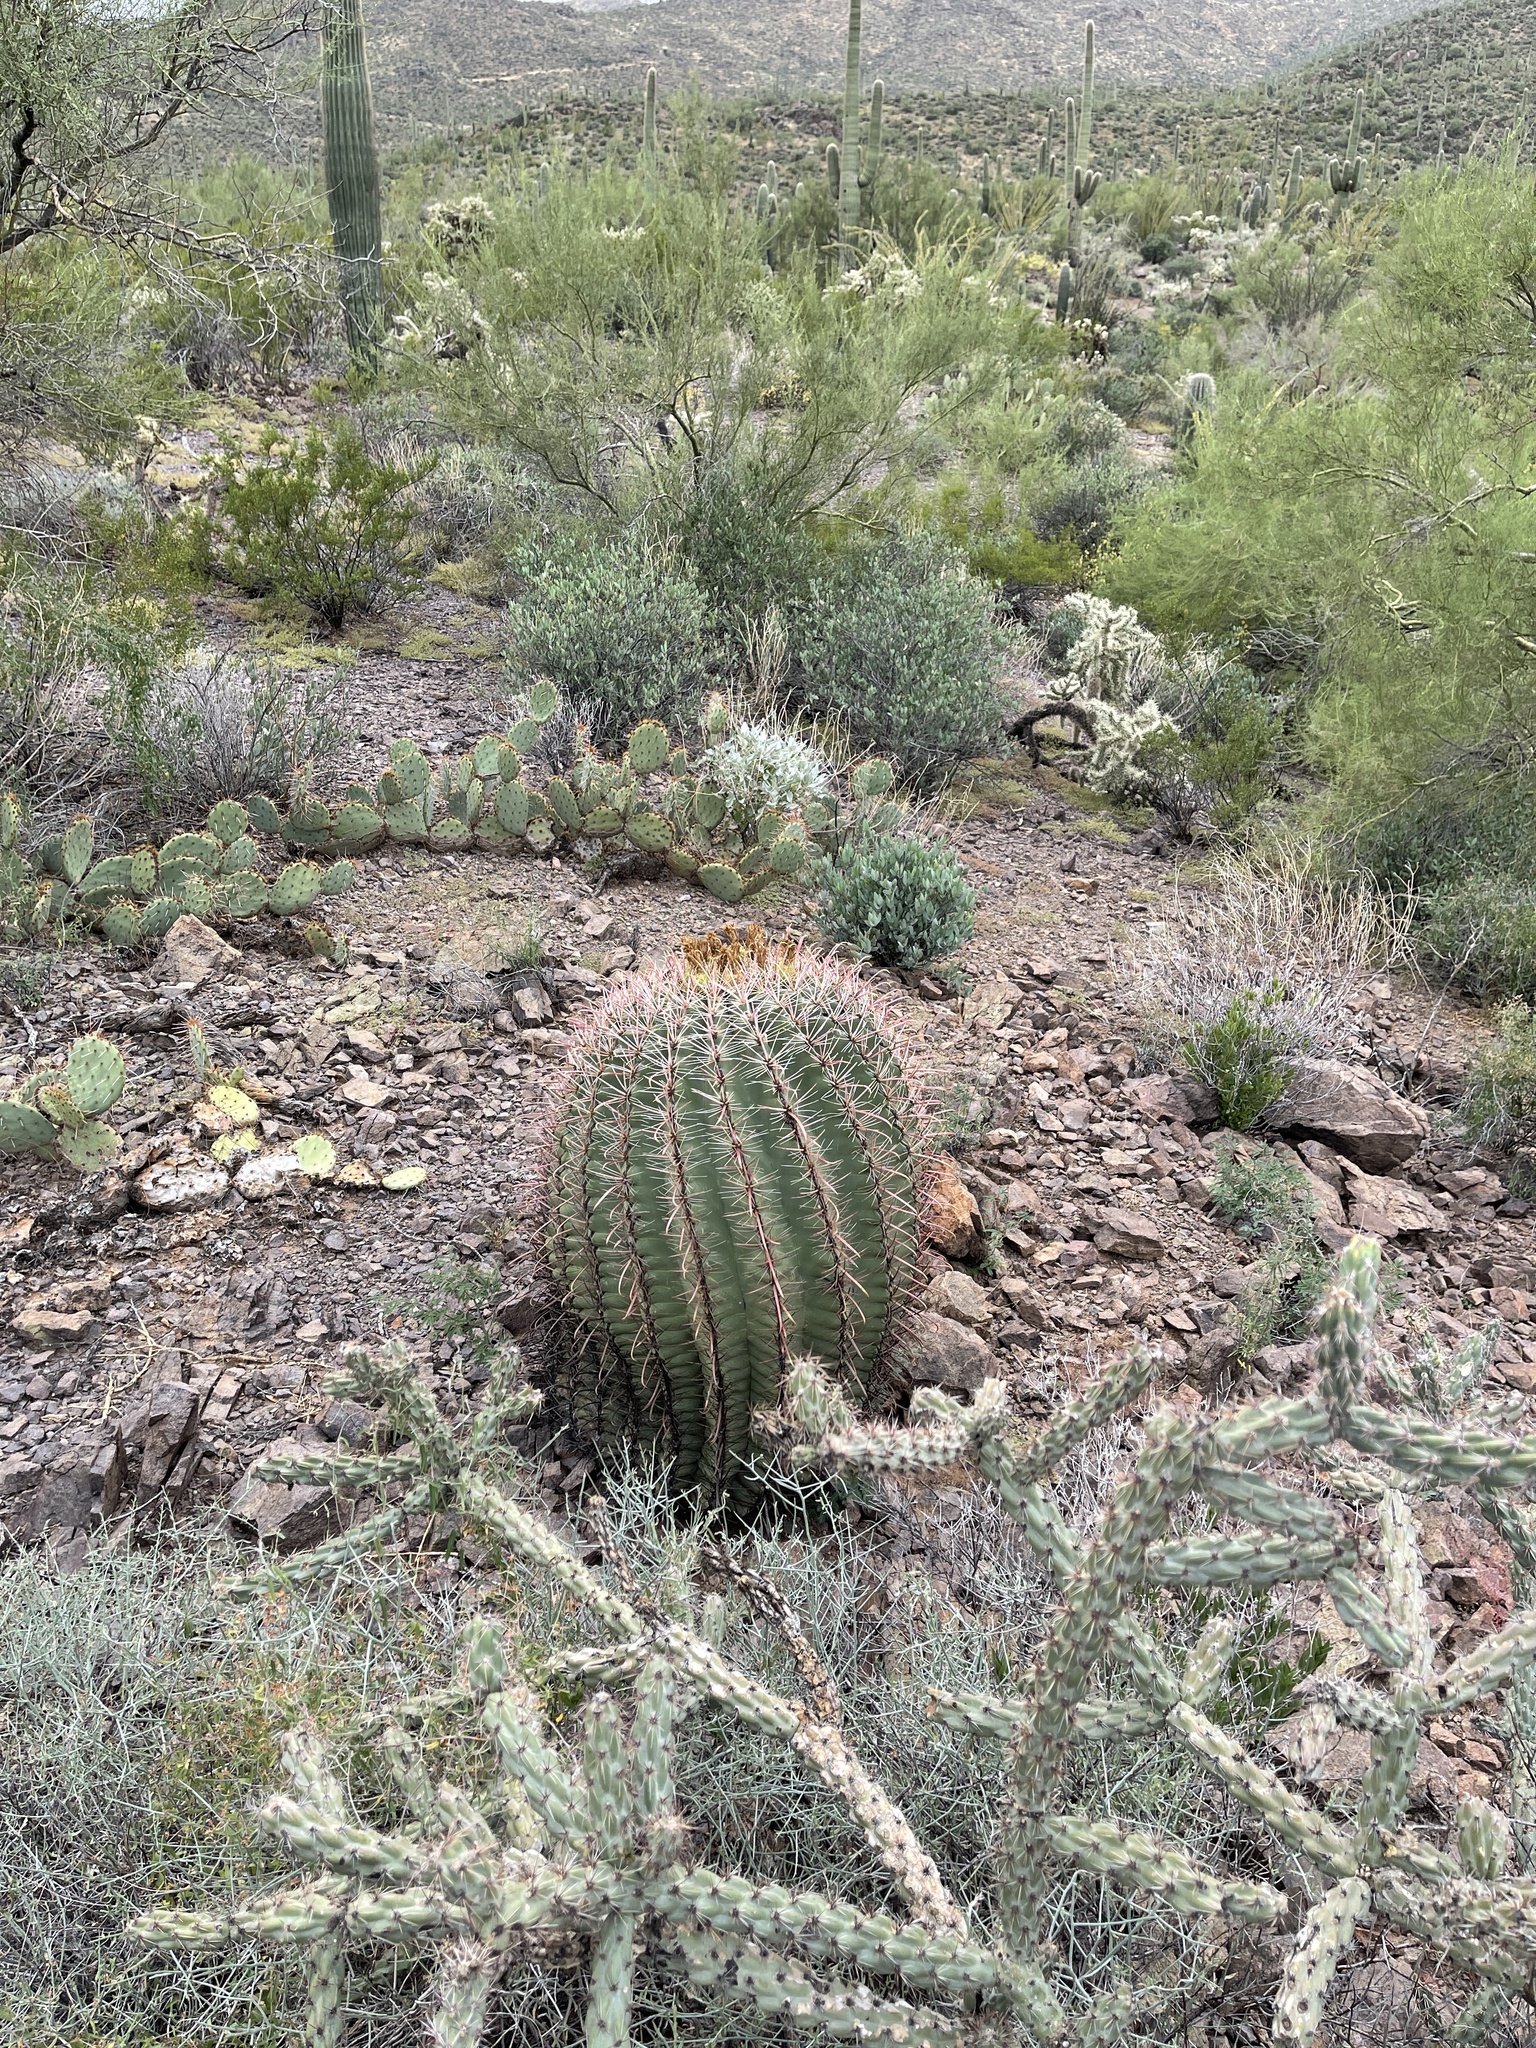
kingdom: Plantae
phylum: Tracheophyta
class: Magnoliopsida
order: Caryophyllales
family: Cactaceae
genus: Ferocactus
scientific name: Ferocactus wislizeni
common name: Candy barrel cactus
